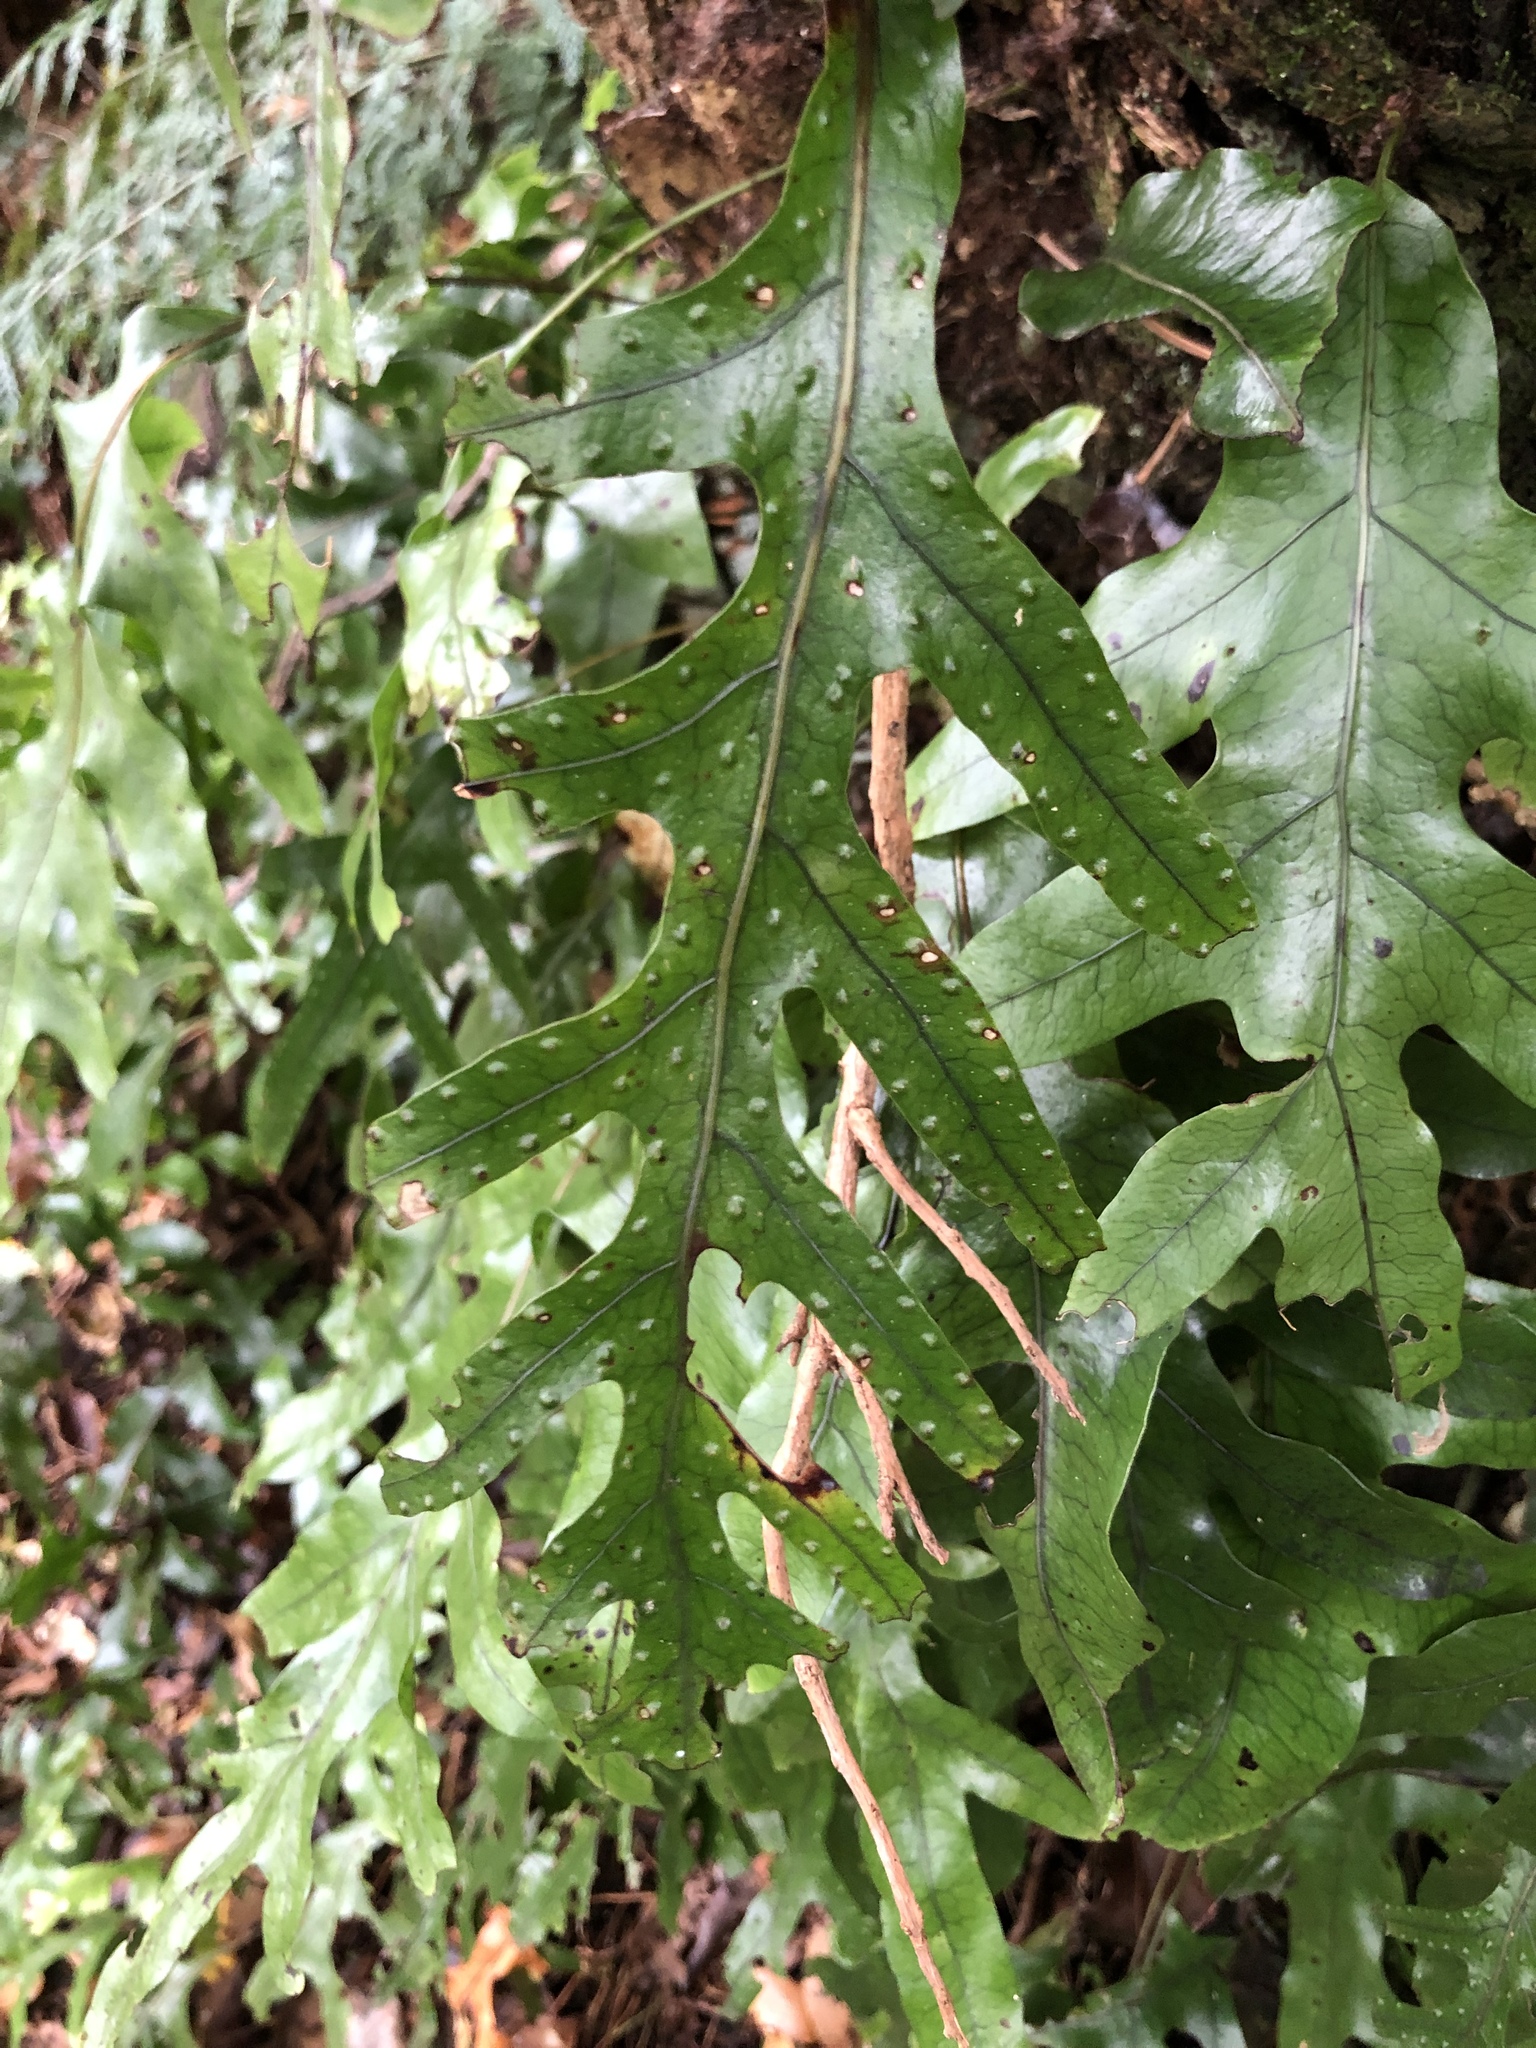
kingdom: Plantae
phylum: Tracheophyta
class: Polypodiopsida
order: Polypodiales
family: Polypodiaceae
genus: Lecanopteris
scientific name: Lecanopteris pustulata
